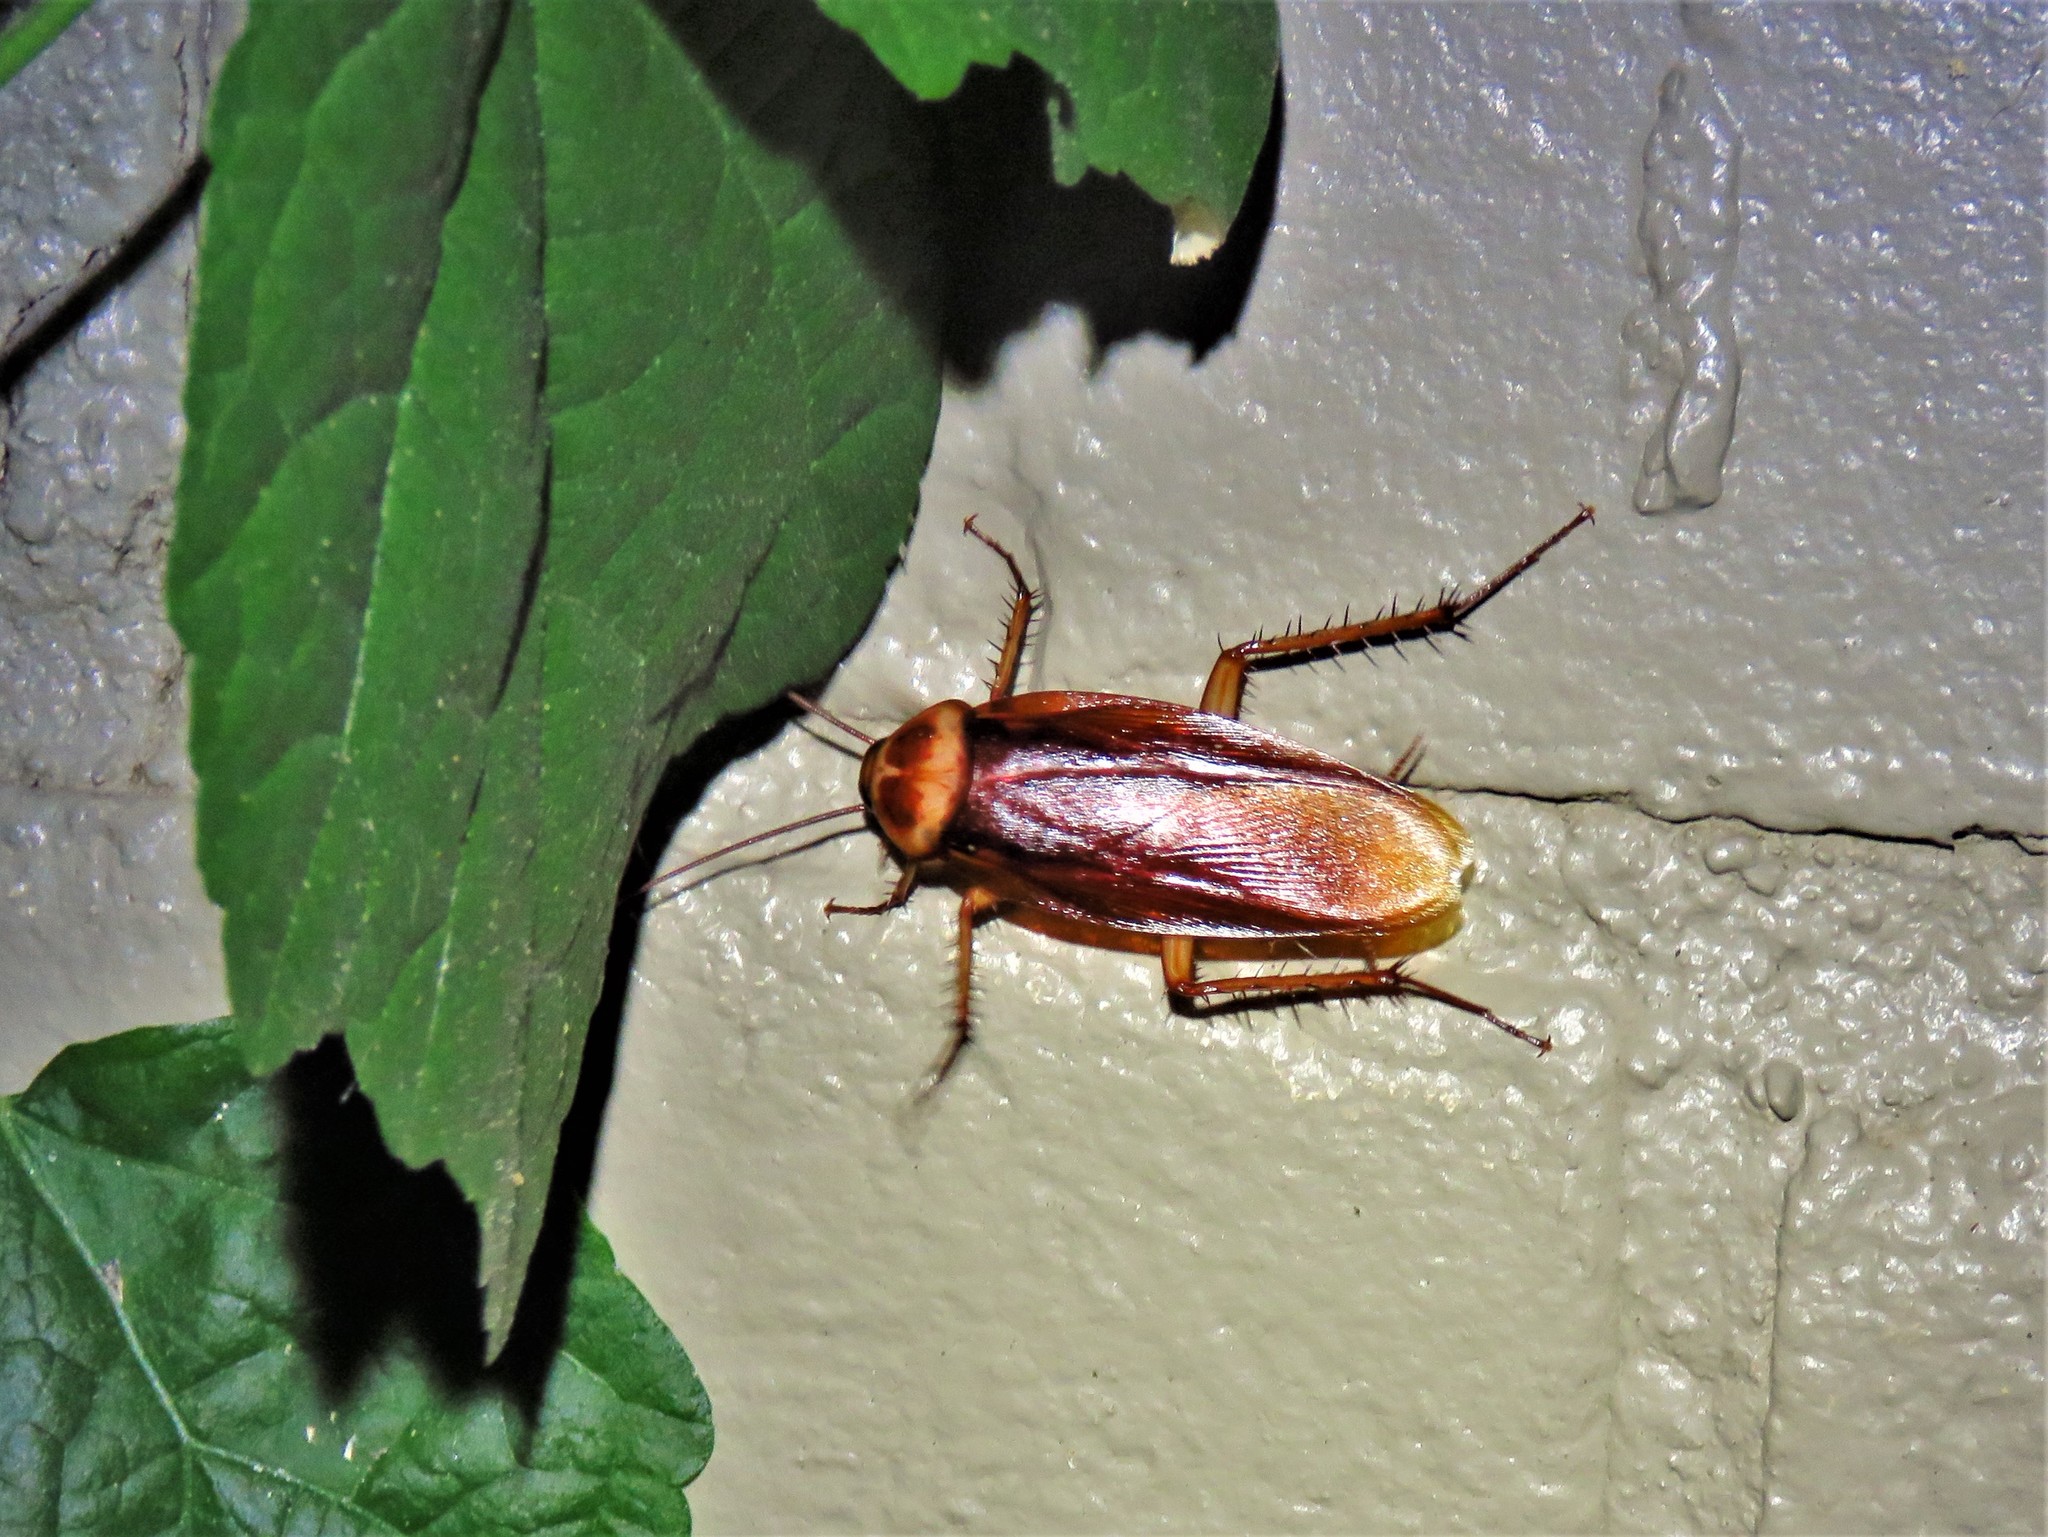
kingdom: Animalia
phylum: Arthropoda
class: Insecta
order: Blattodea
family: Blattidae
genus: Periplaneta
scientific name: Periplaneta americana
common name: American cockroach
